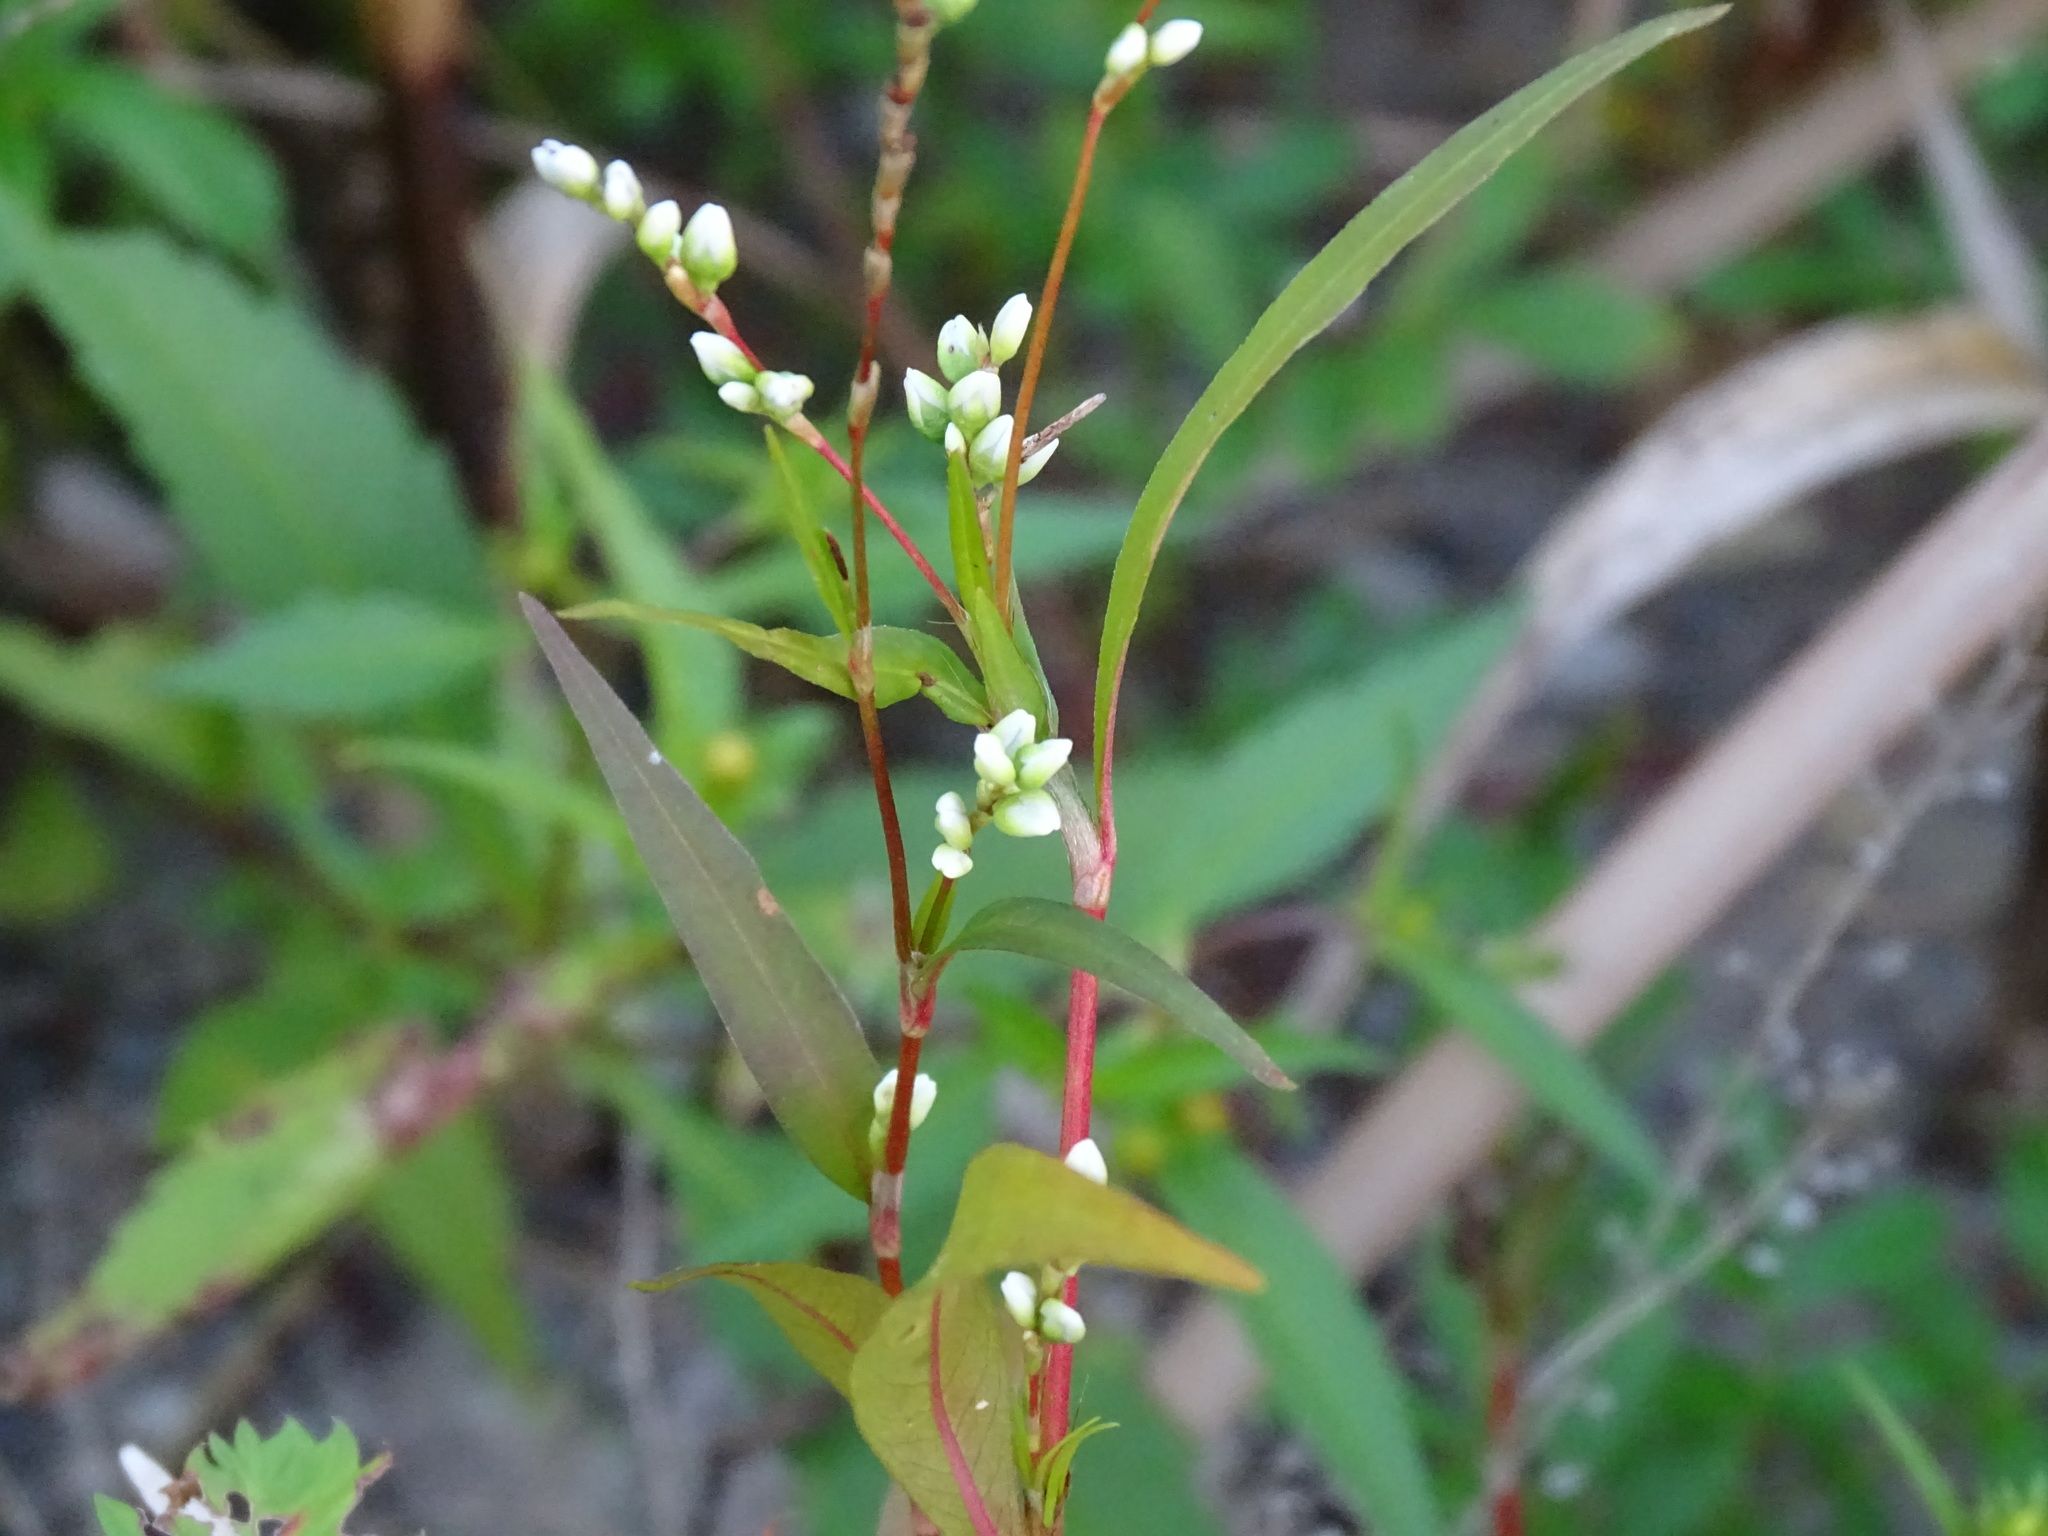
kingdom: Plantae
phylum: Tracheophyta
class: Magnoliopsida
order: Caryophyllales
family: Polygonaceae
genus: Persicaria
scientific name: Persicaria punctata
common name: Dotted smartweed
